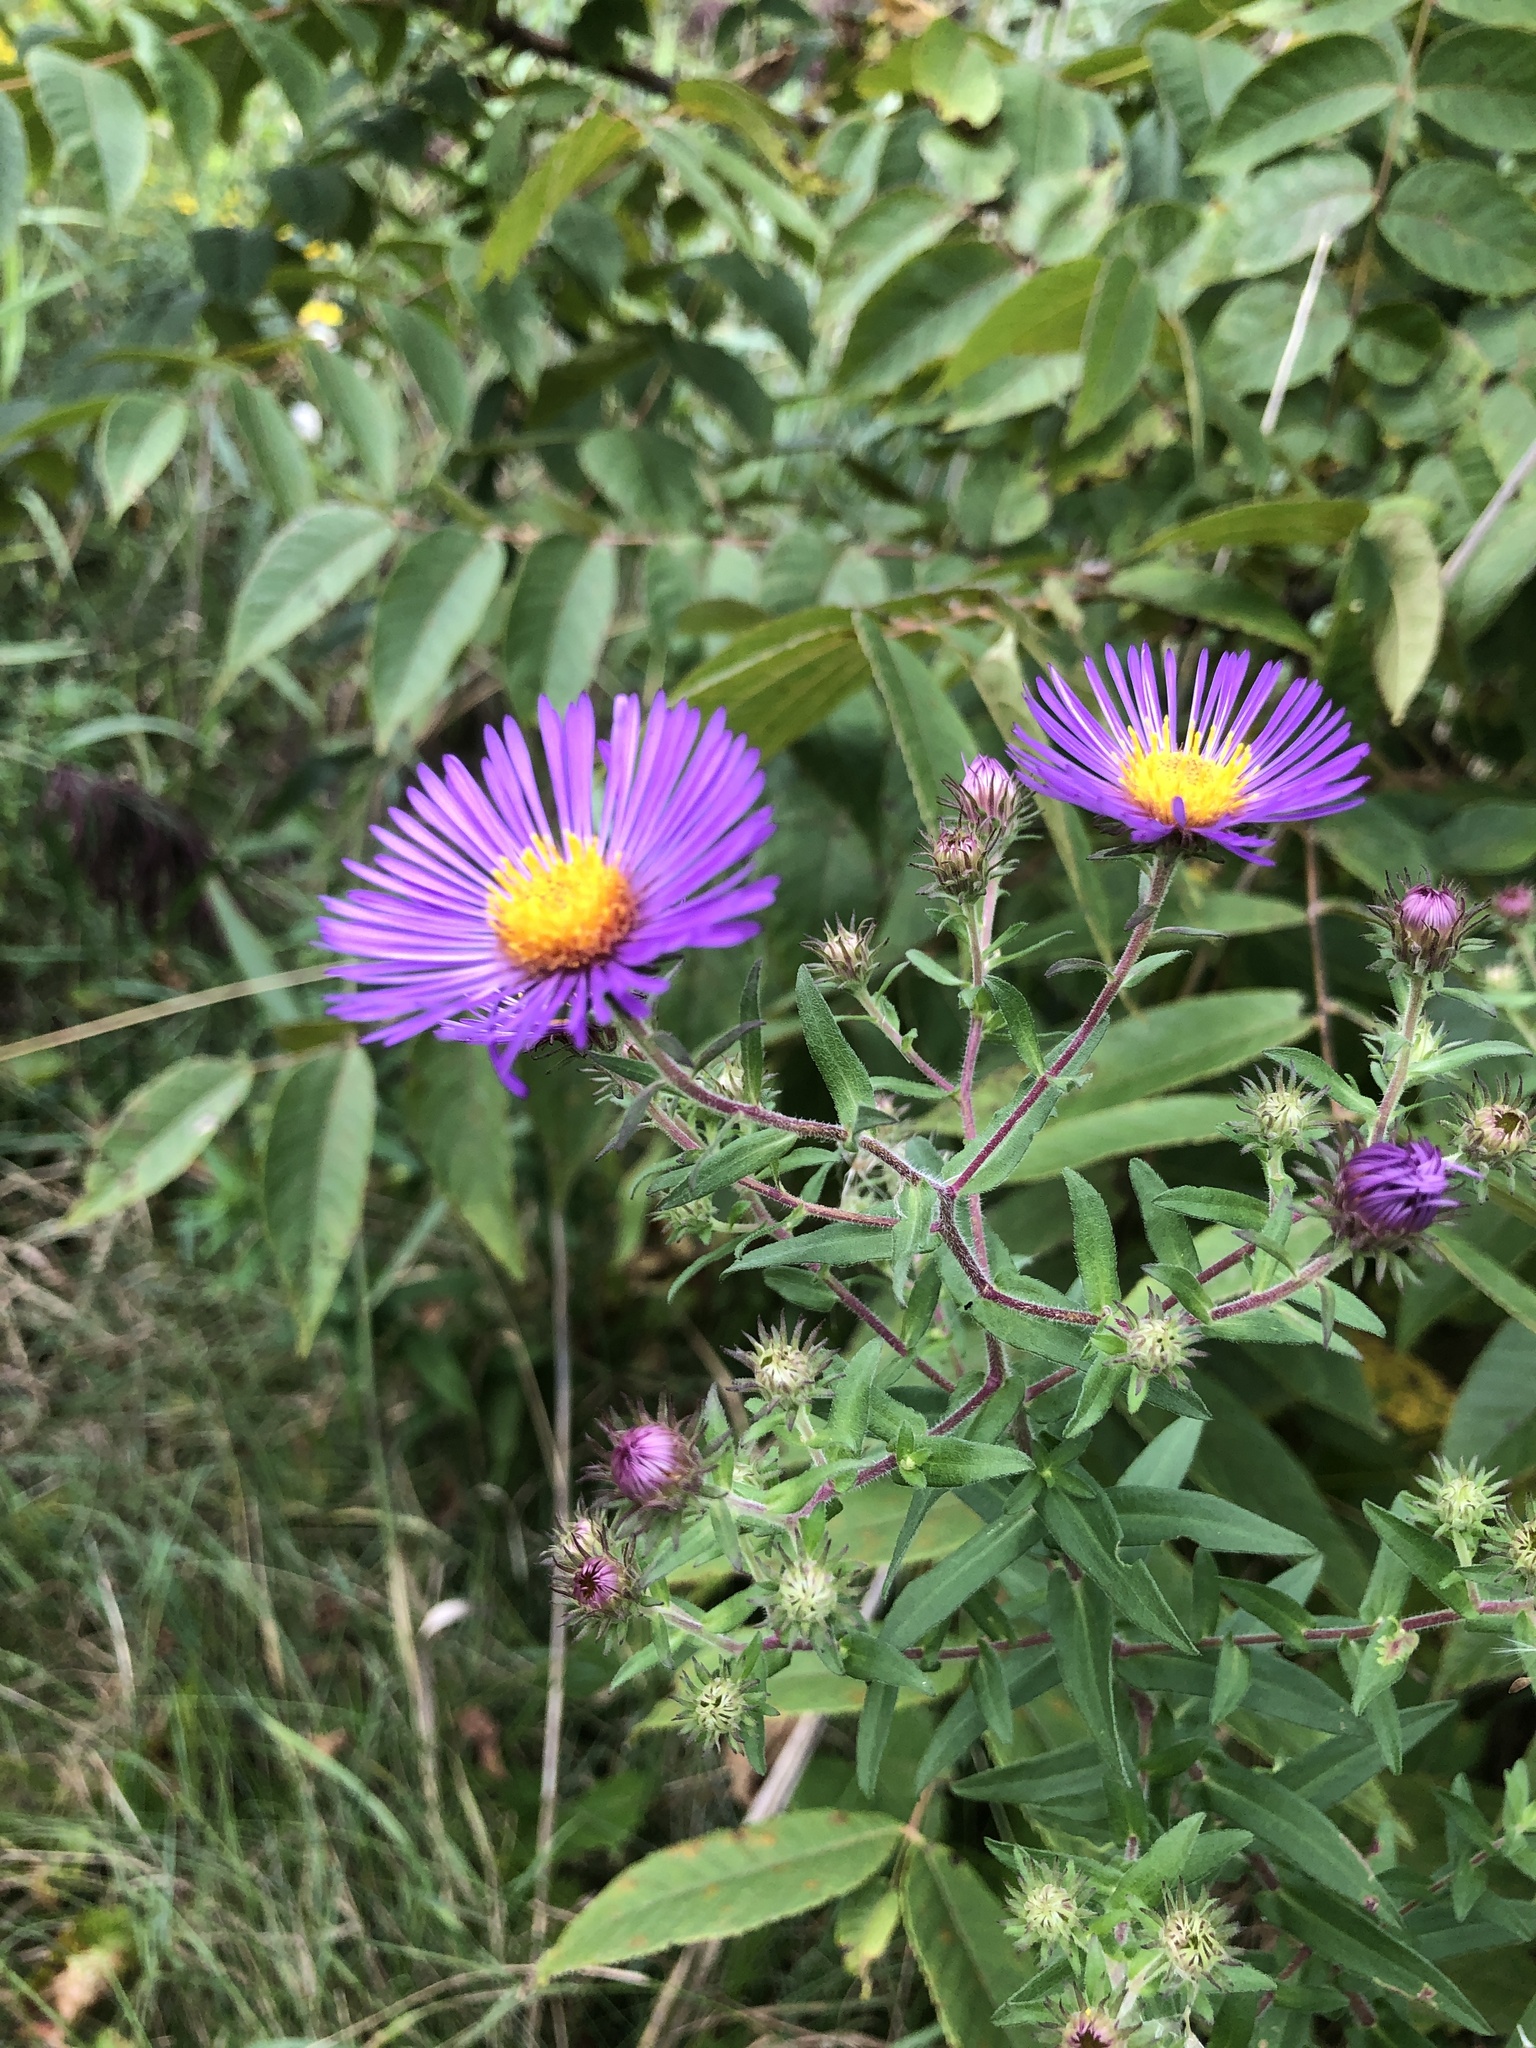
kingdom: Plantae
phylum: Tracheophyta
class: Magnoliopsida
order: Asterales
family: Asteraceae
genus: Symphyotrichum
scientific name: Symphyotrichum novae-angliae
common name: Michaelmas daisy
